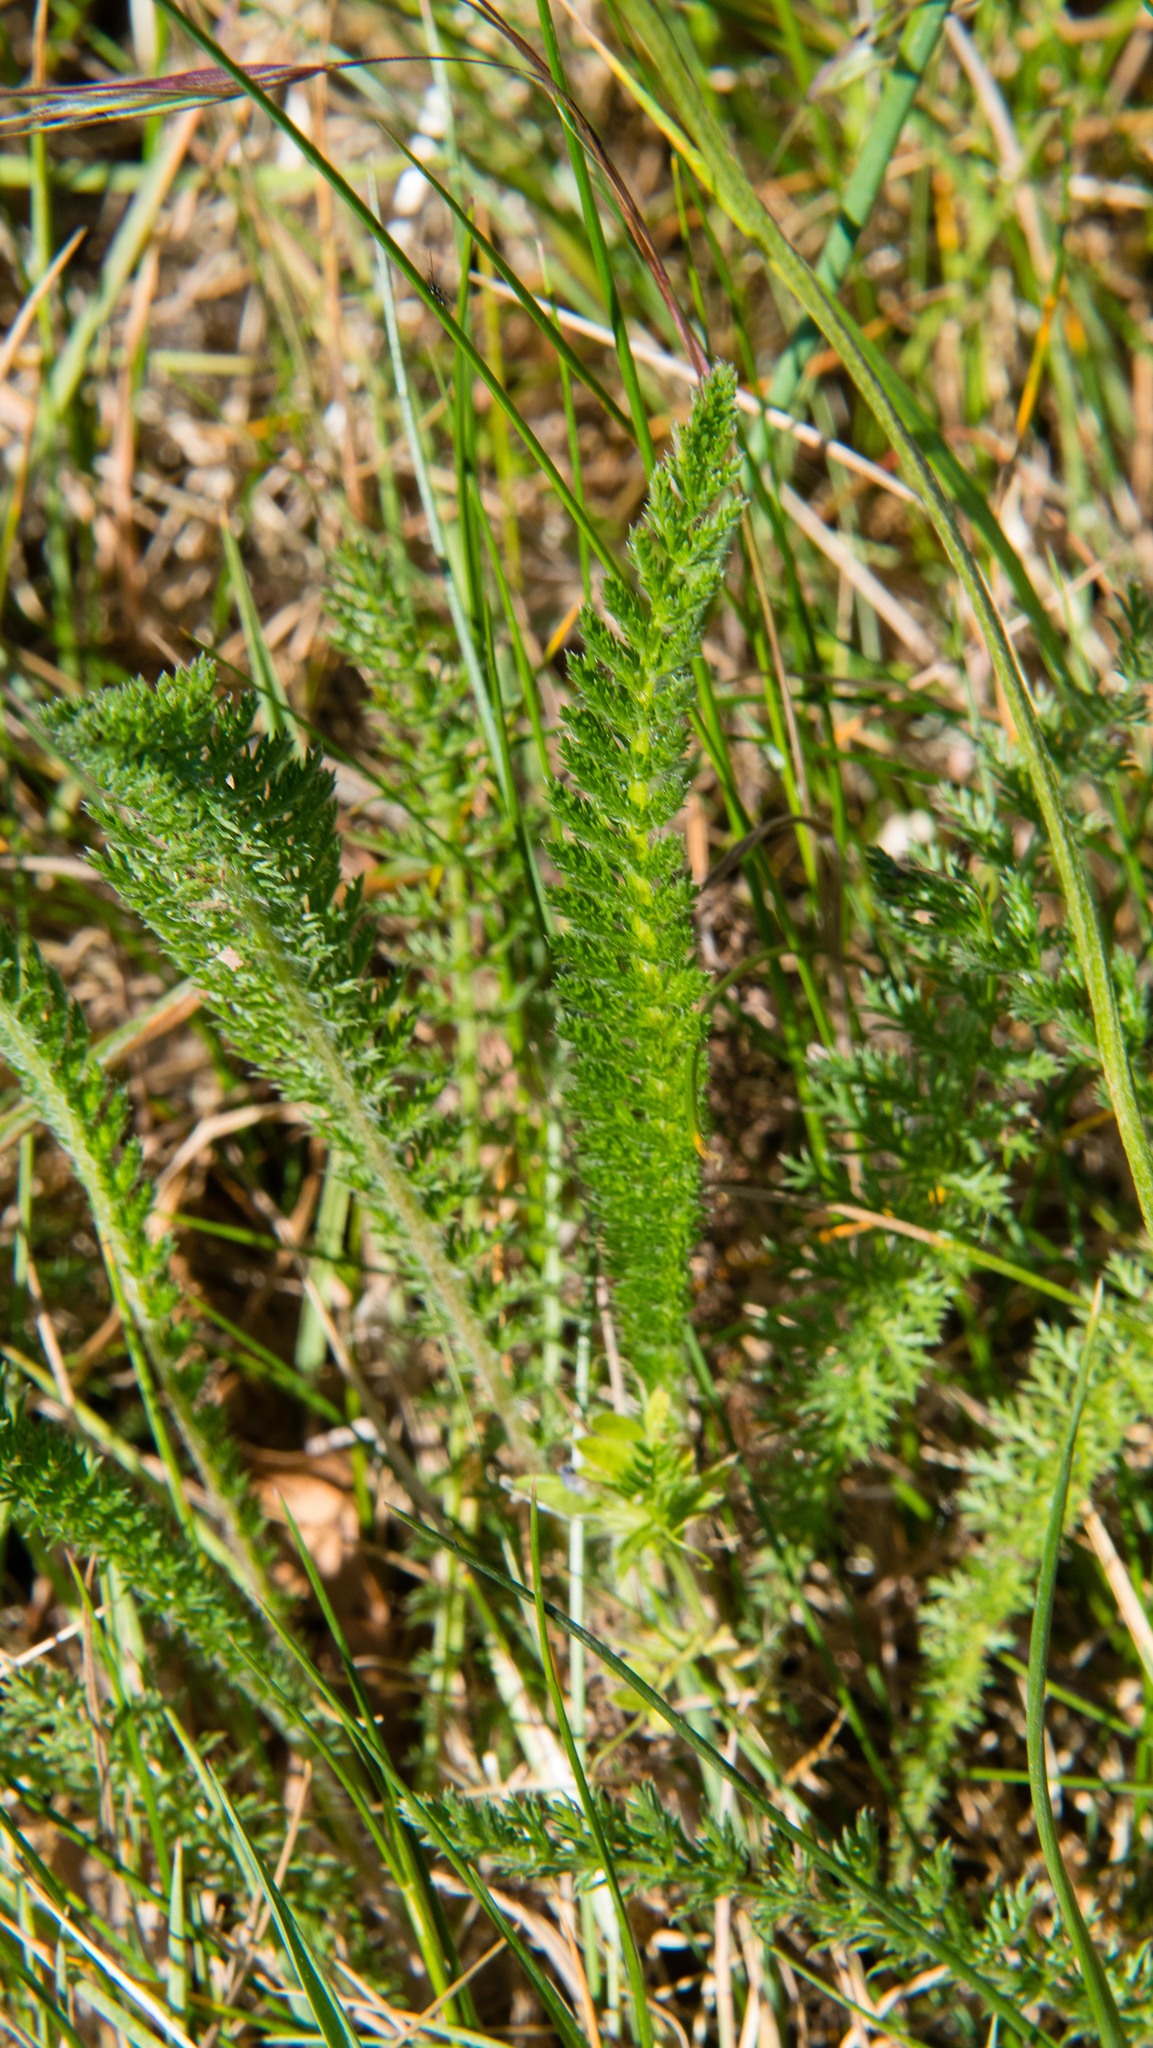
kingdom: Plantae
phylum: Tracheophyta
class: Magnoliopsida
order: Asterales
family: Asteraceae
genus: Achillea
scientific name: Achillea millefolium
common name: Yarrow
